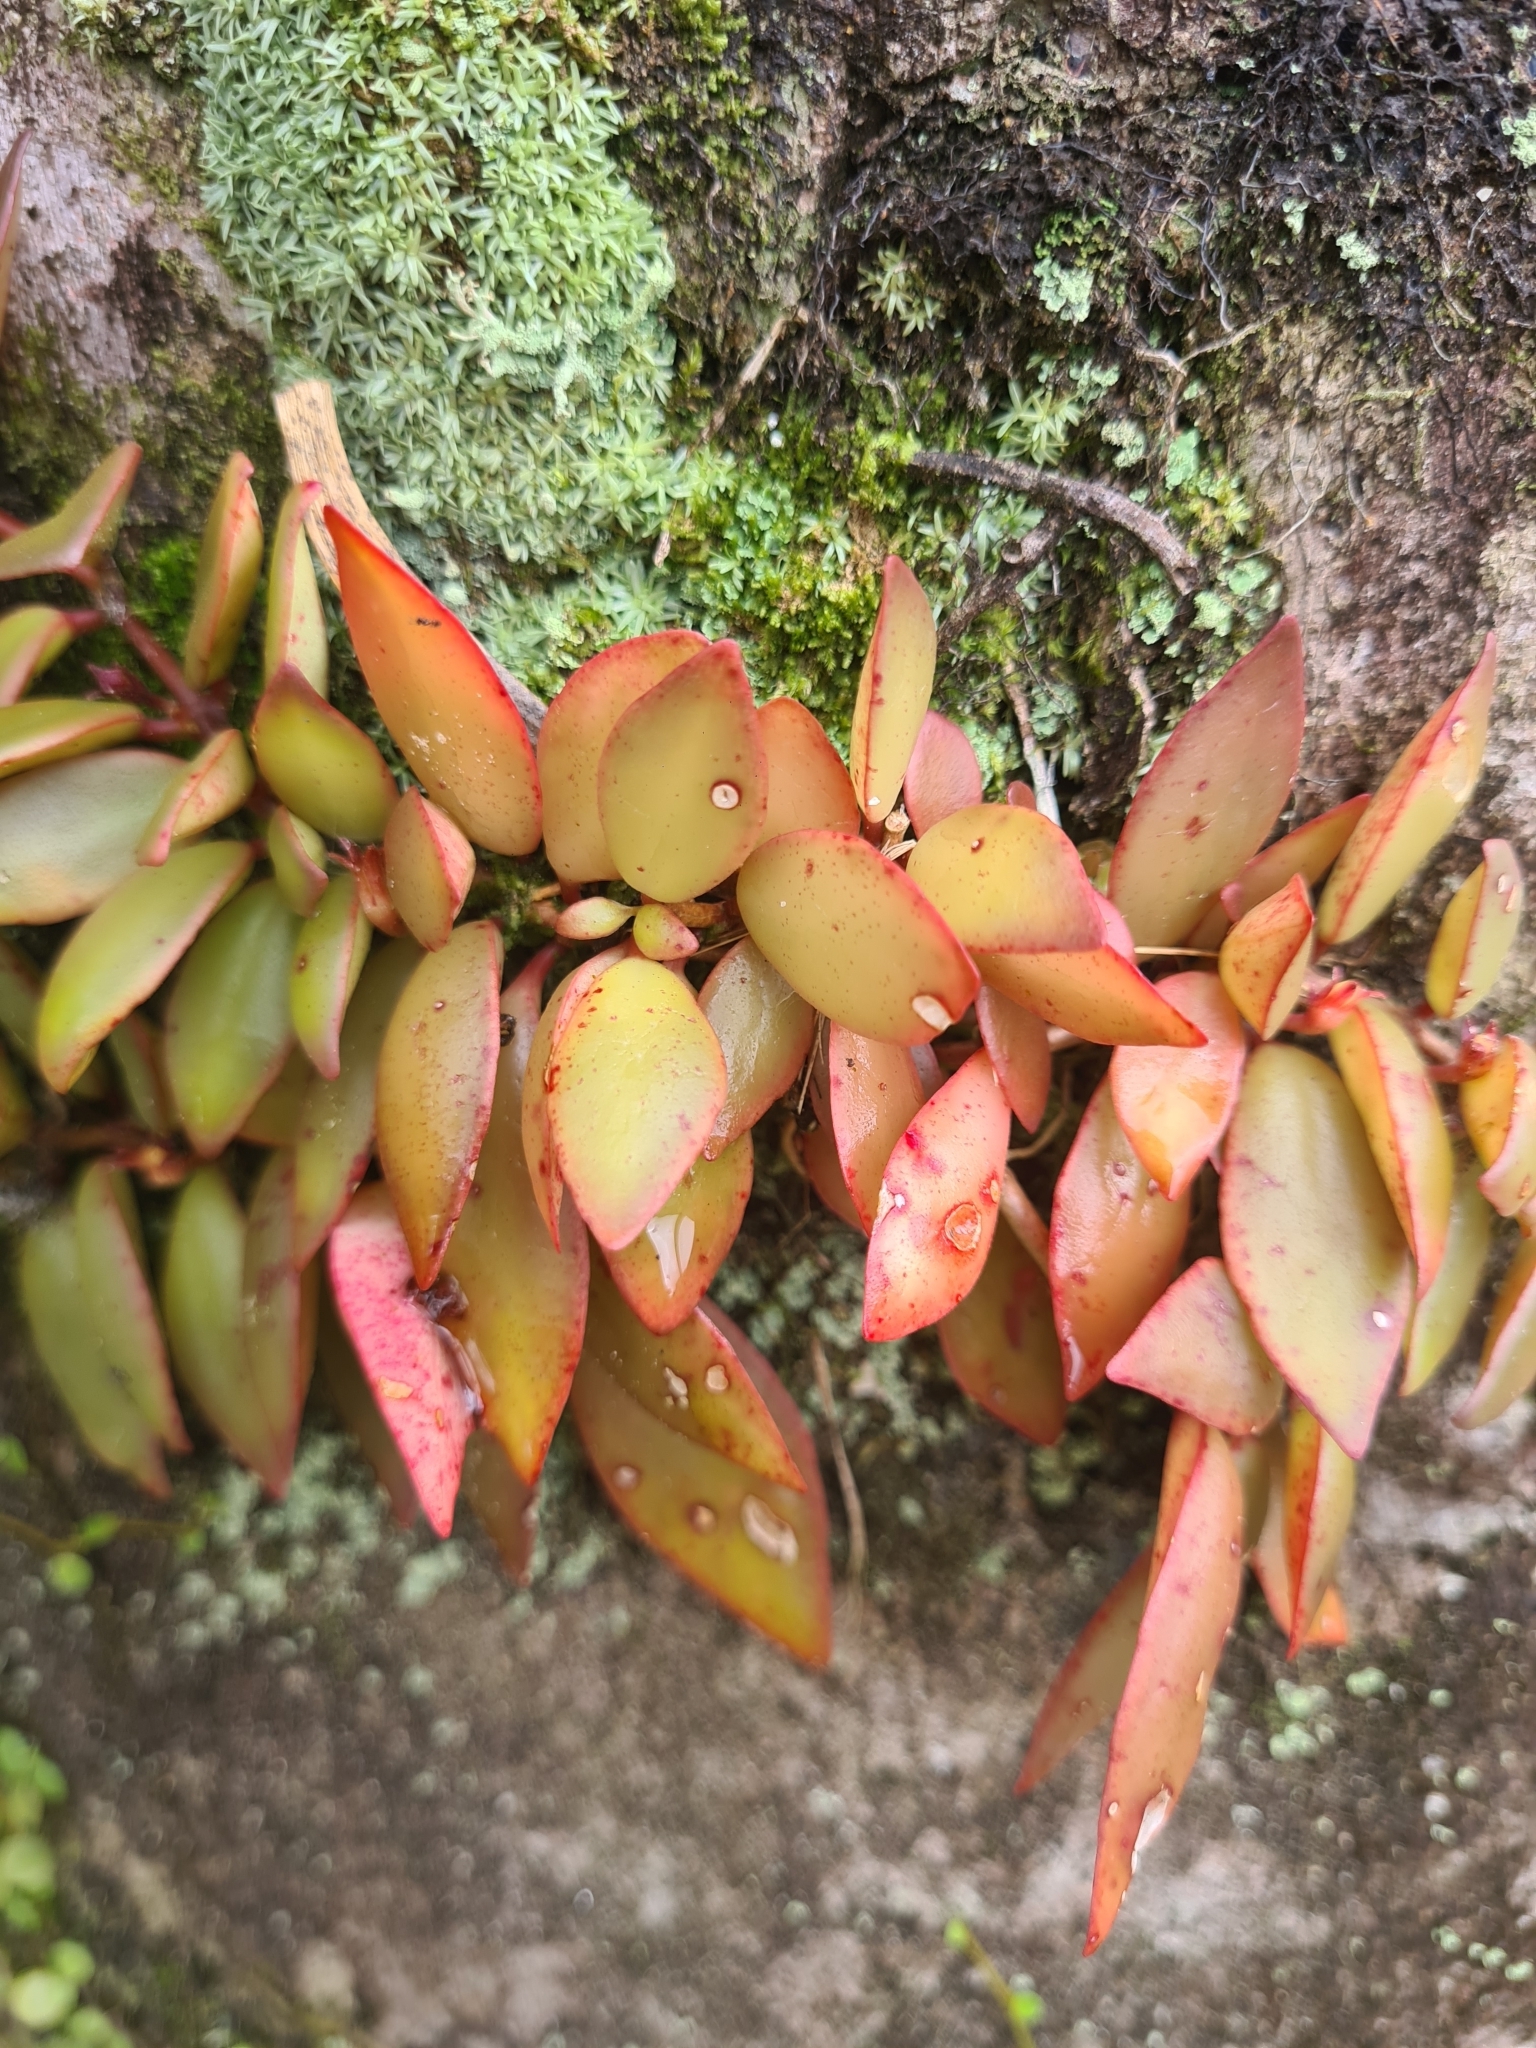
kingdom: Plantae
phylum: Tracheophyta
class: Magnoliopsida
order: Lamiales
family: Gesneriaceae
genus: Codonanthopsis
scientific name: Codonanthopsis crassifolia
